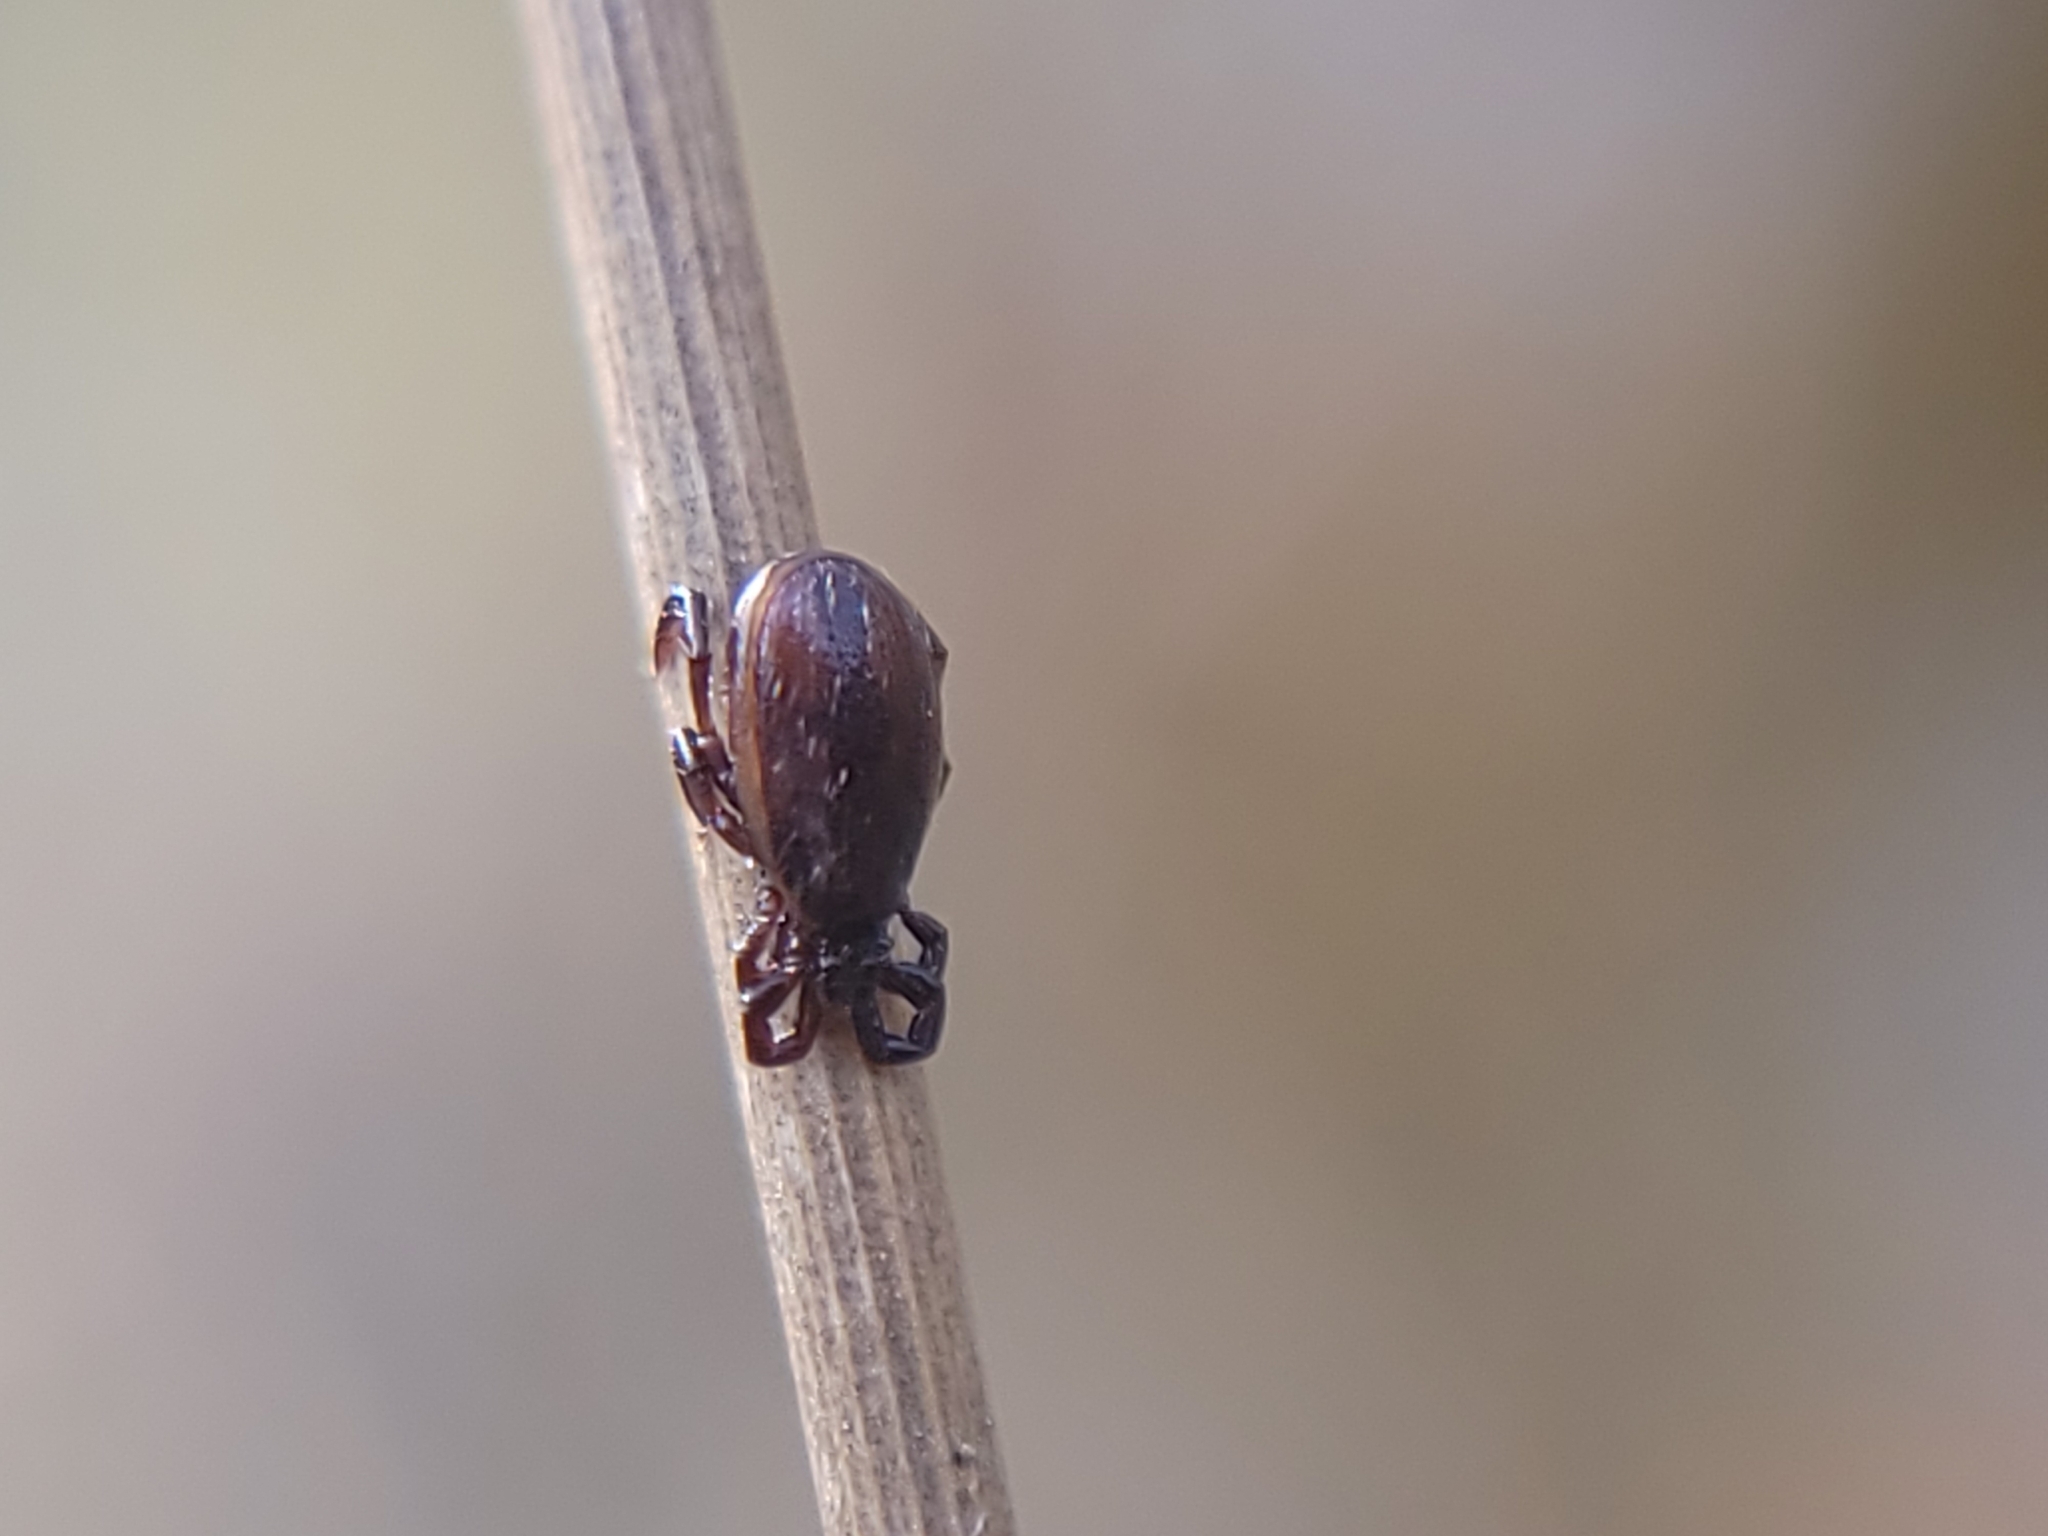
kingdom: Animalia
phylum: Arthropoda
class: Arachnida
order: Ixodida
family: Ixodidae
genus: Ixodes
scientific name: Ixodes pacificus
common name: California black-legged tick
